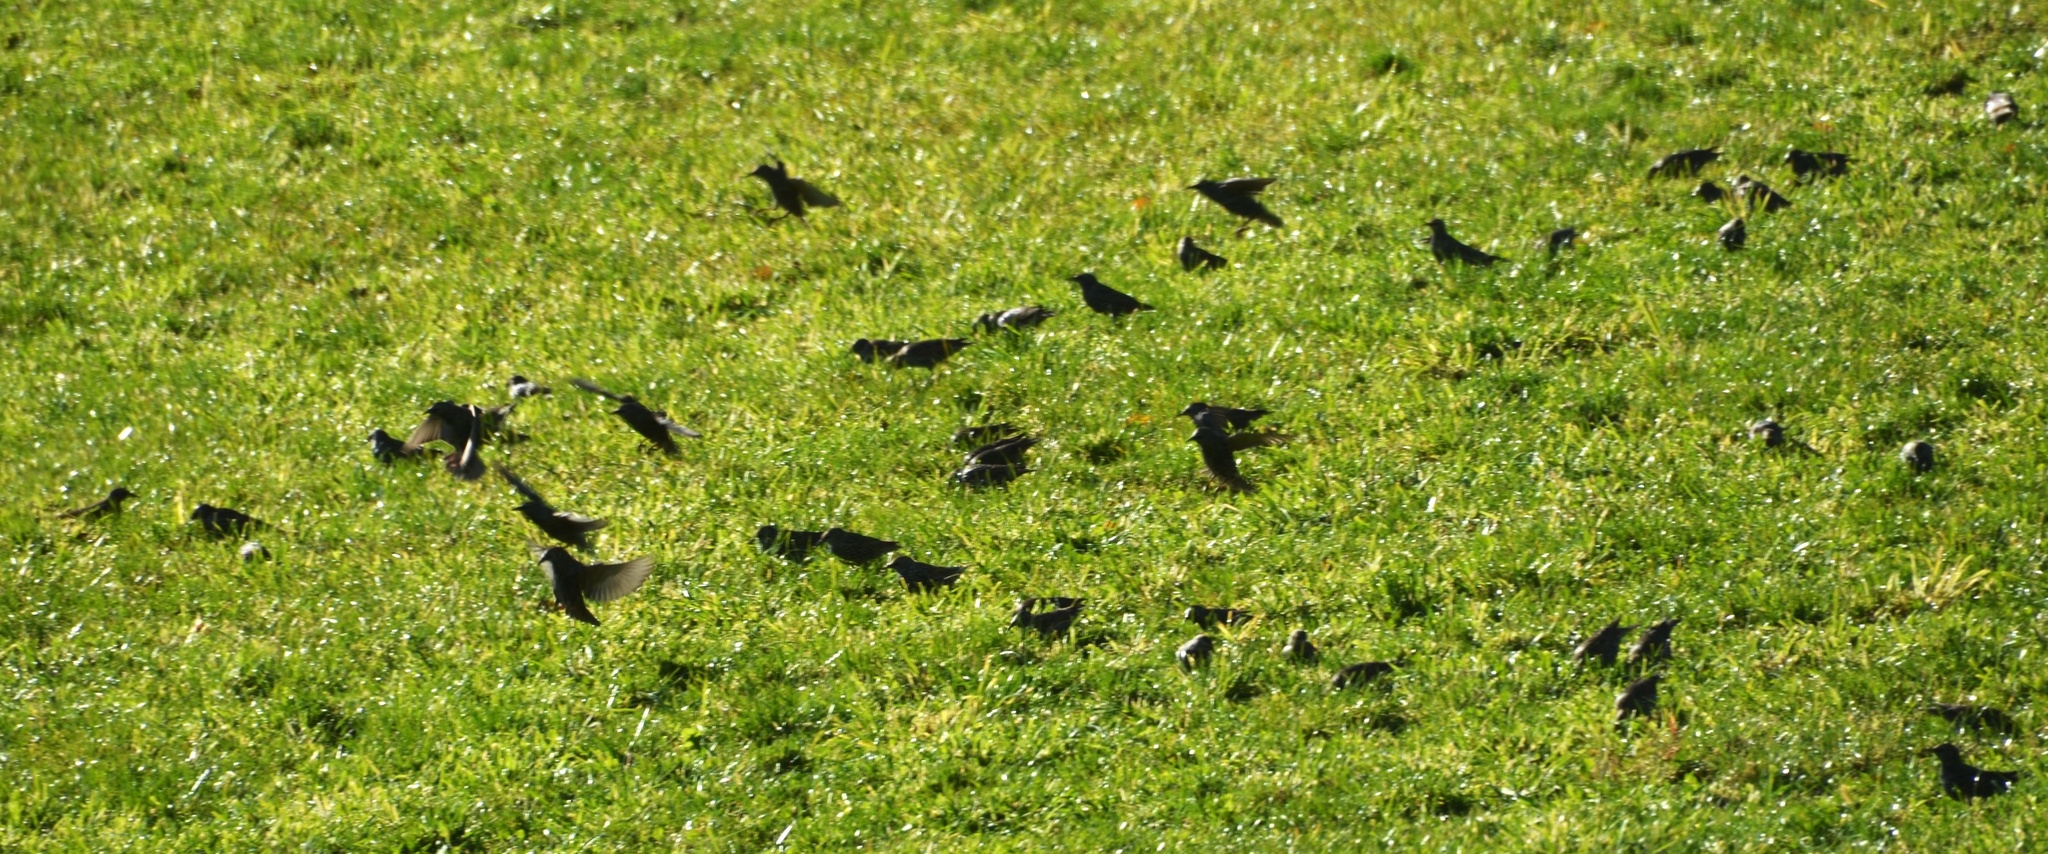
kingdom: Animalia
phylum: Chordata
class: Aves
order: Passeriformes
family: Sturnidae
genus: Sturnus
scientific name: Sturnus vulgaris
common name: Common starling
